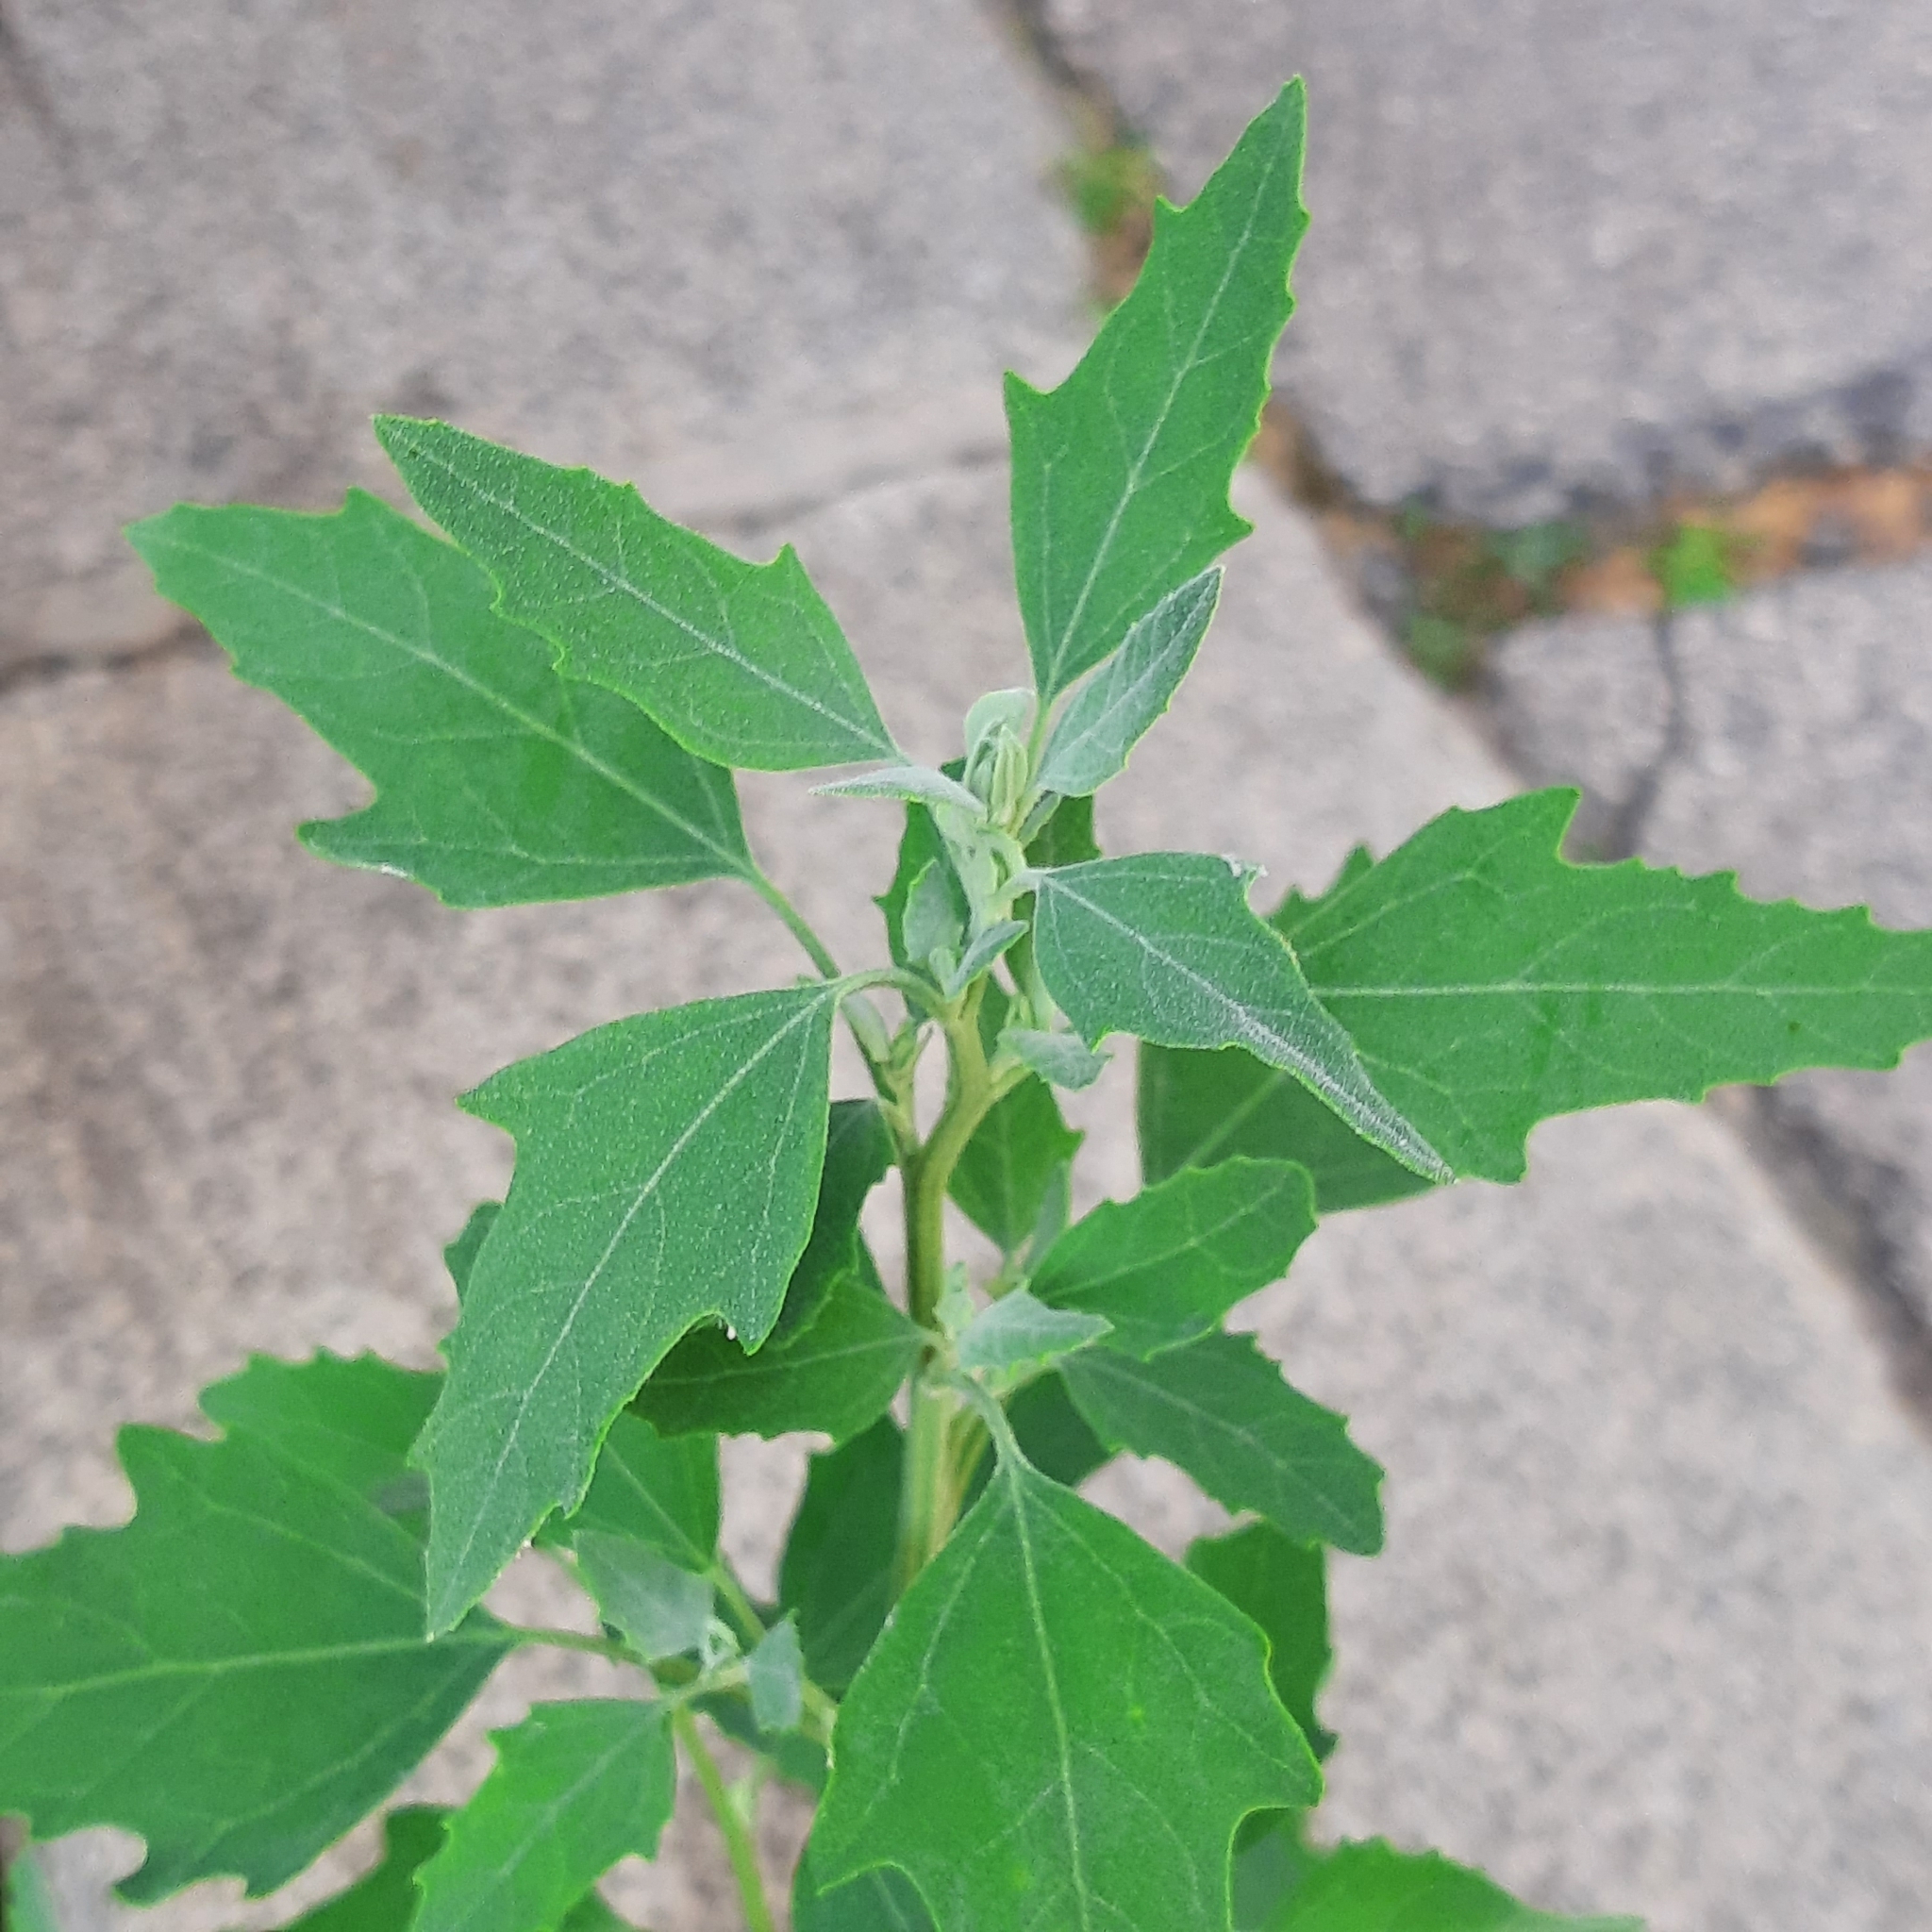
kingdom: Plantae
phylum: Tracheophyta
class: Magnoliopsida
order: Caryophyllales
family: Amaranthaceae
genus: Chenopodium
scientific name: Chenopodium album
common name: Fat-hen
